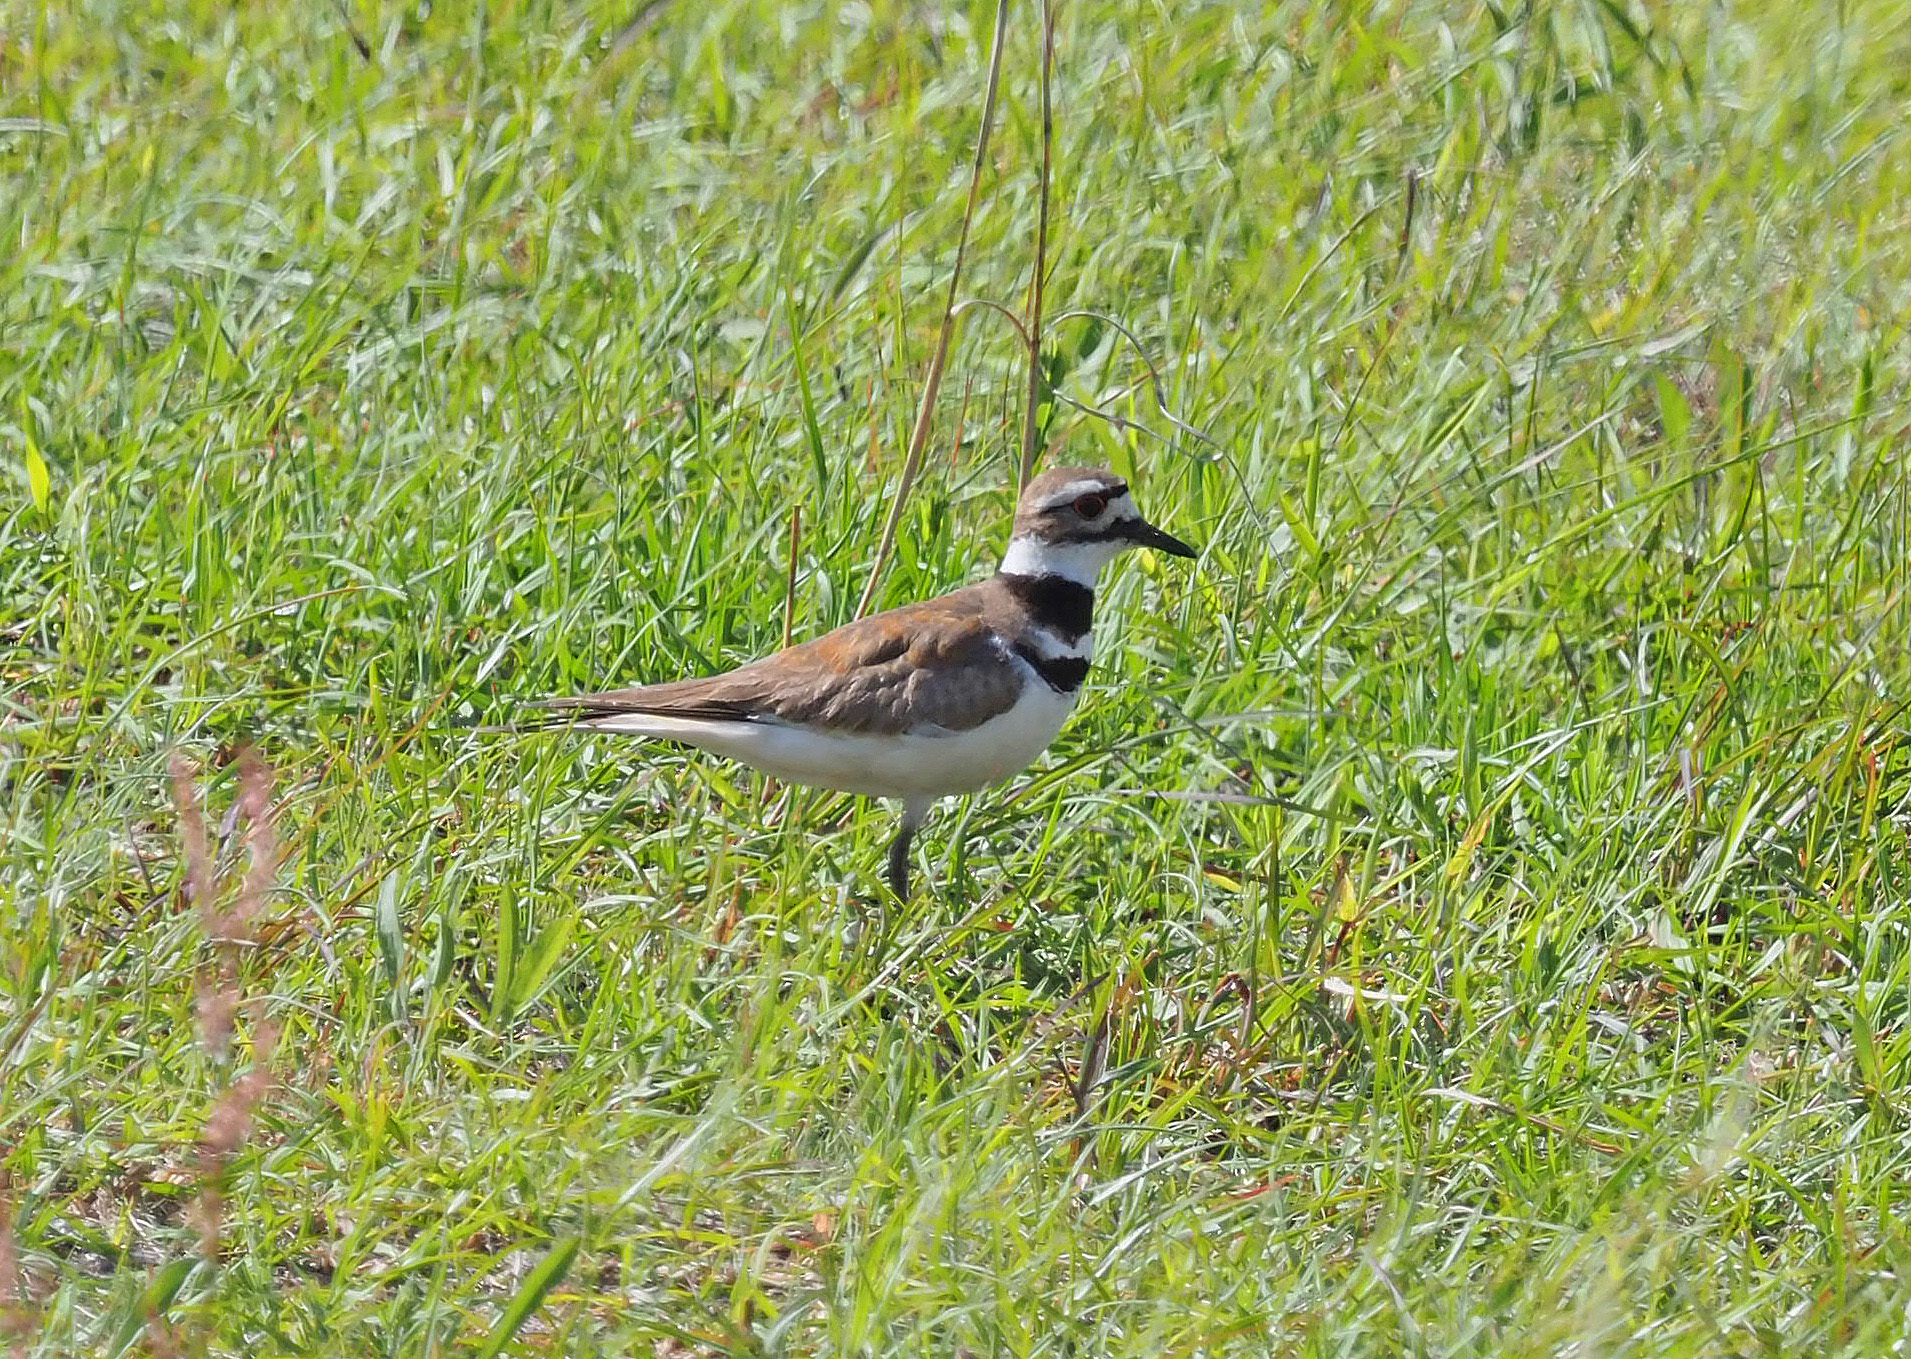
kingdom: Animalia
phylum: Chordata
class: Aves
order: Charadriiformes
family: Charadriidae
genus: Charadrius
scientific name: Charadrius vociferus
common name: Killdeer
